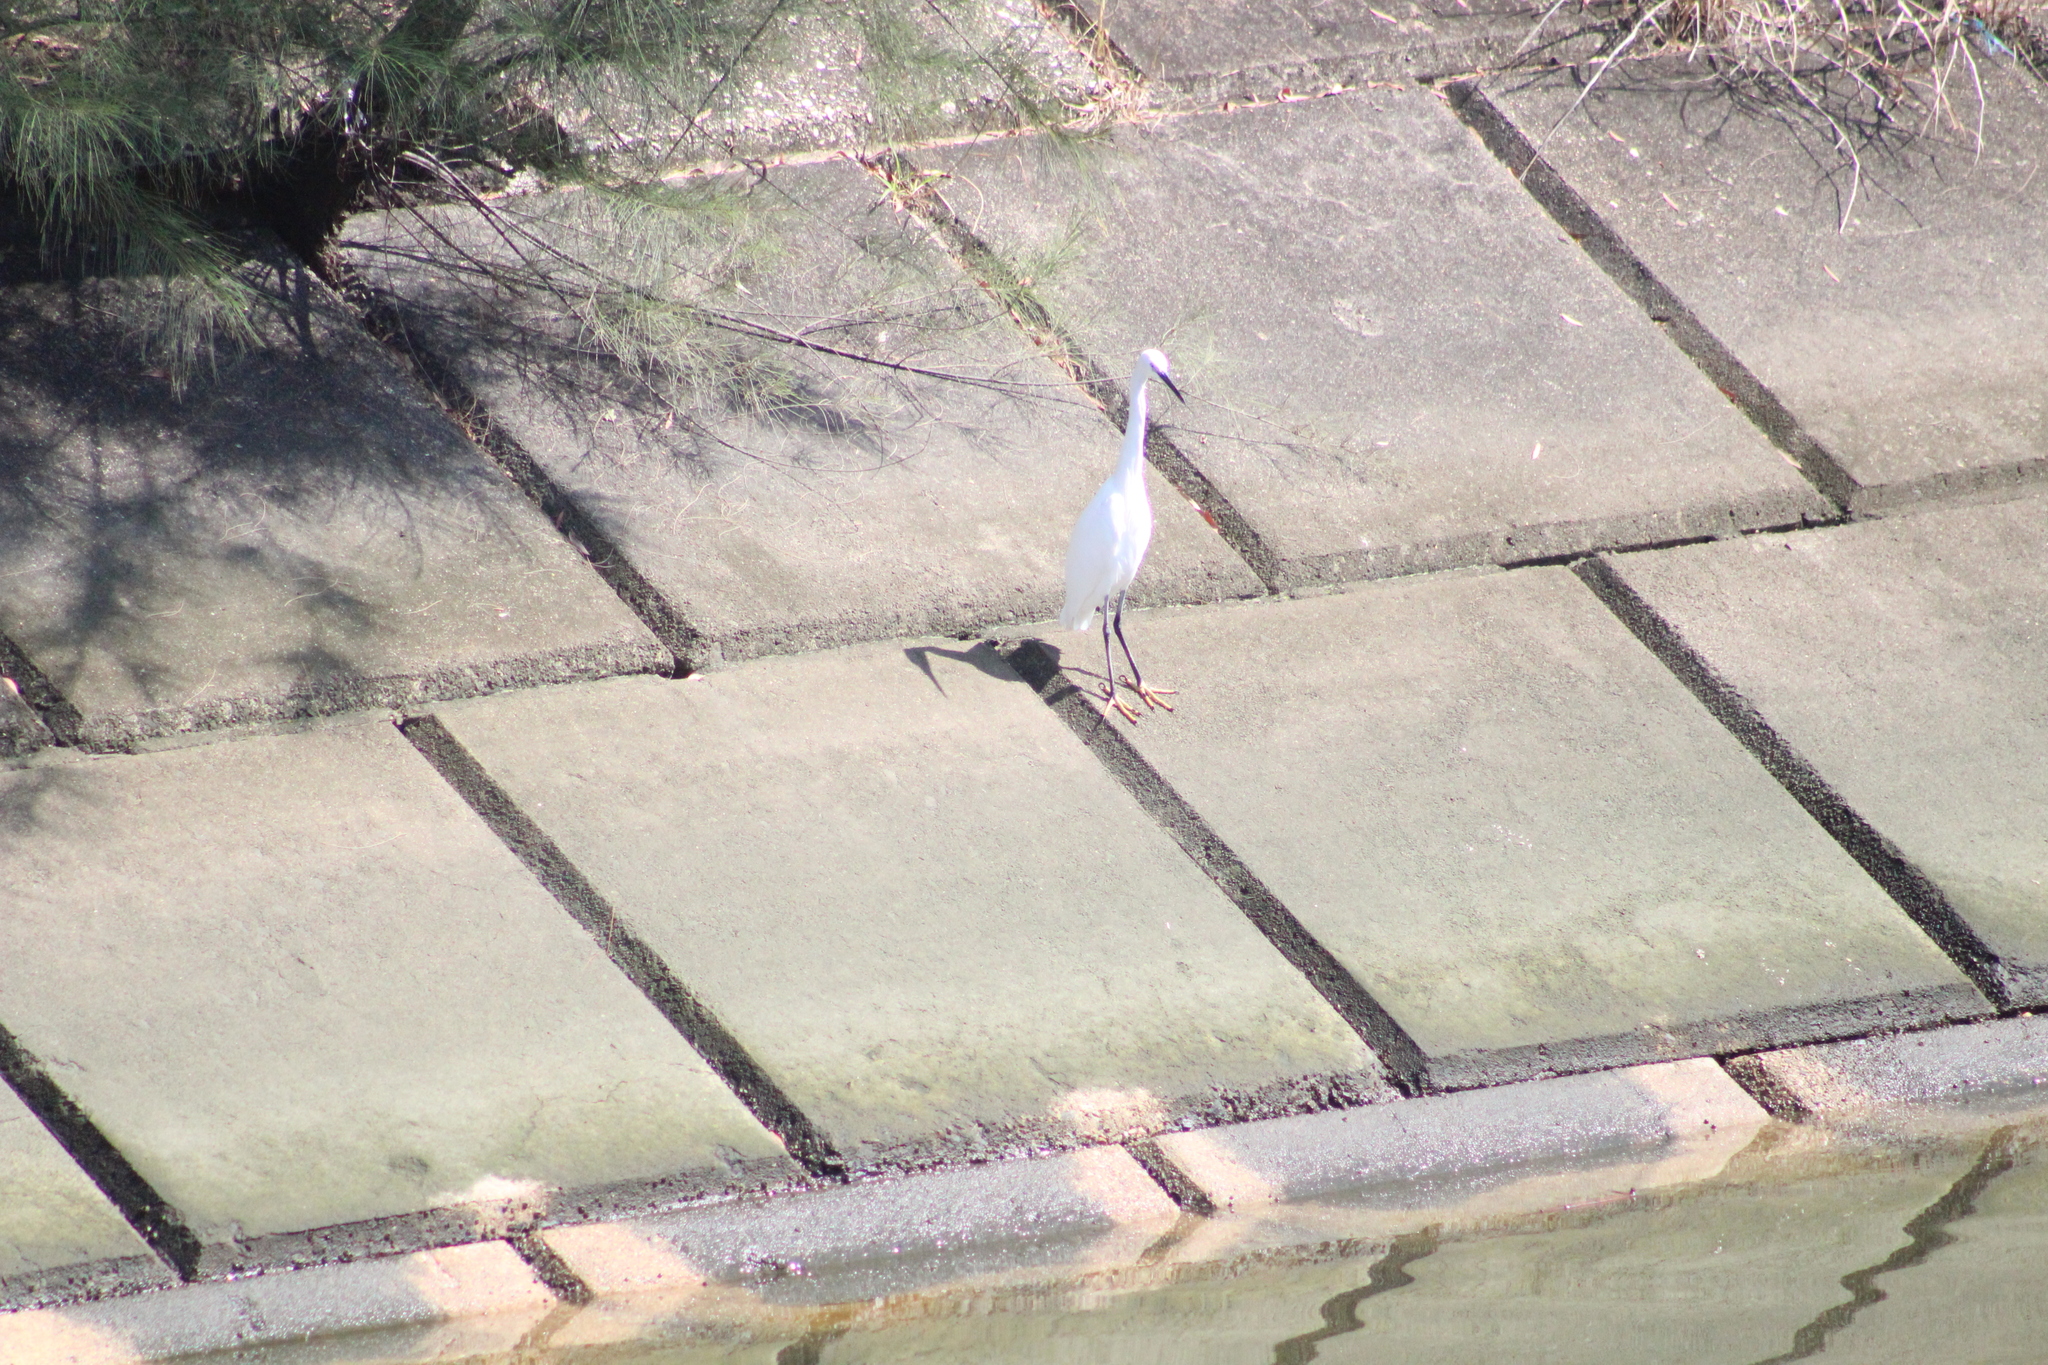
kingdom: Animalia
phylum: Chordata
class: Aves
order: Pelecaniformes
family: Ardeidae
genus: Egretta
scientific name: Egretta garzetta
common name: Little egret
